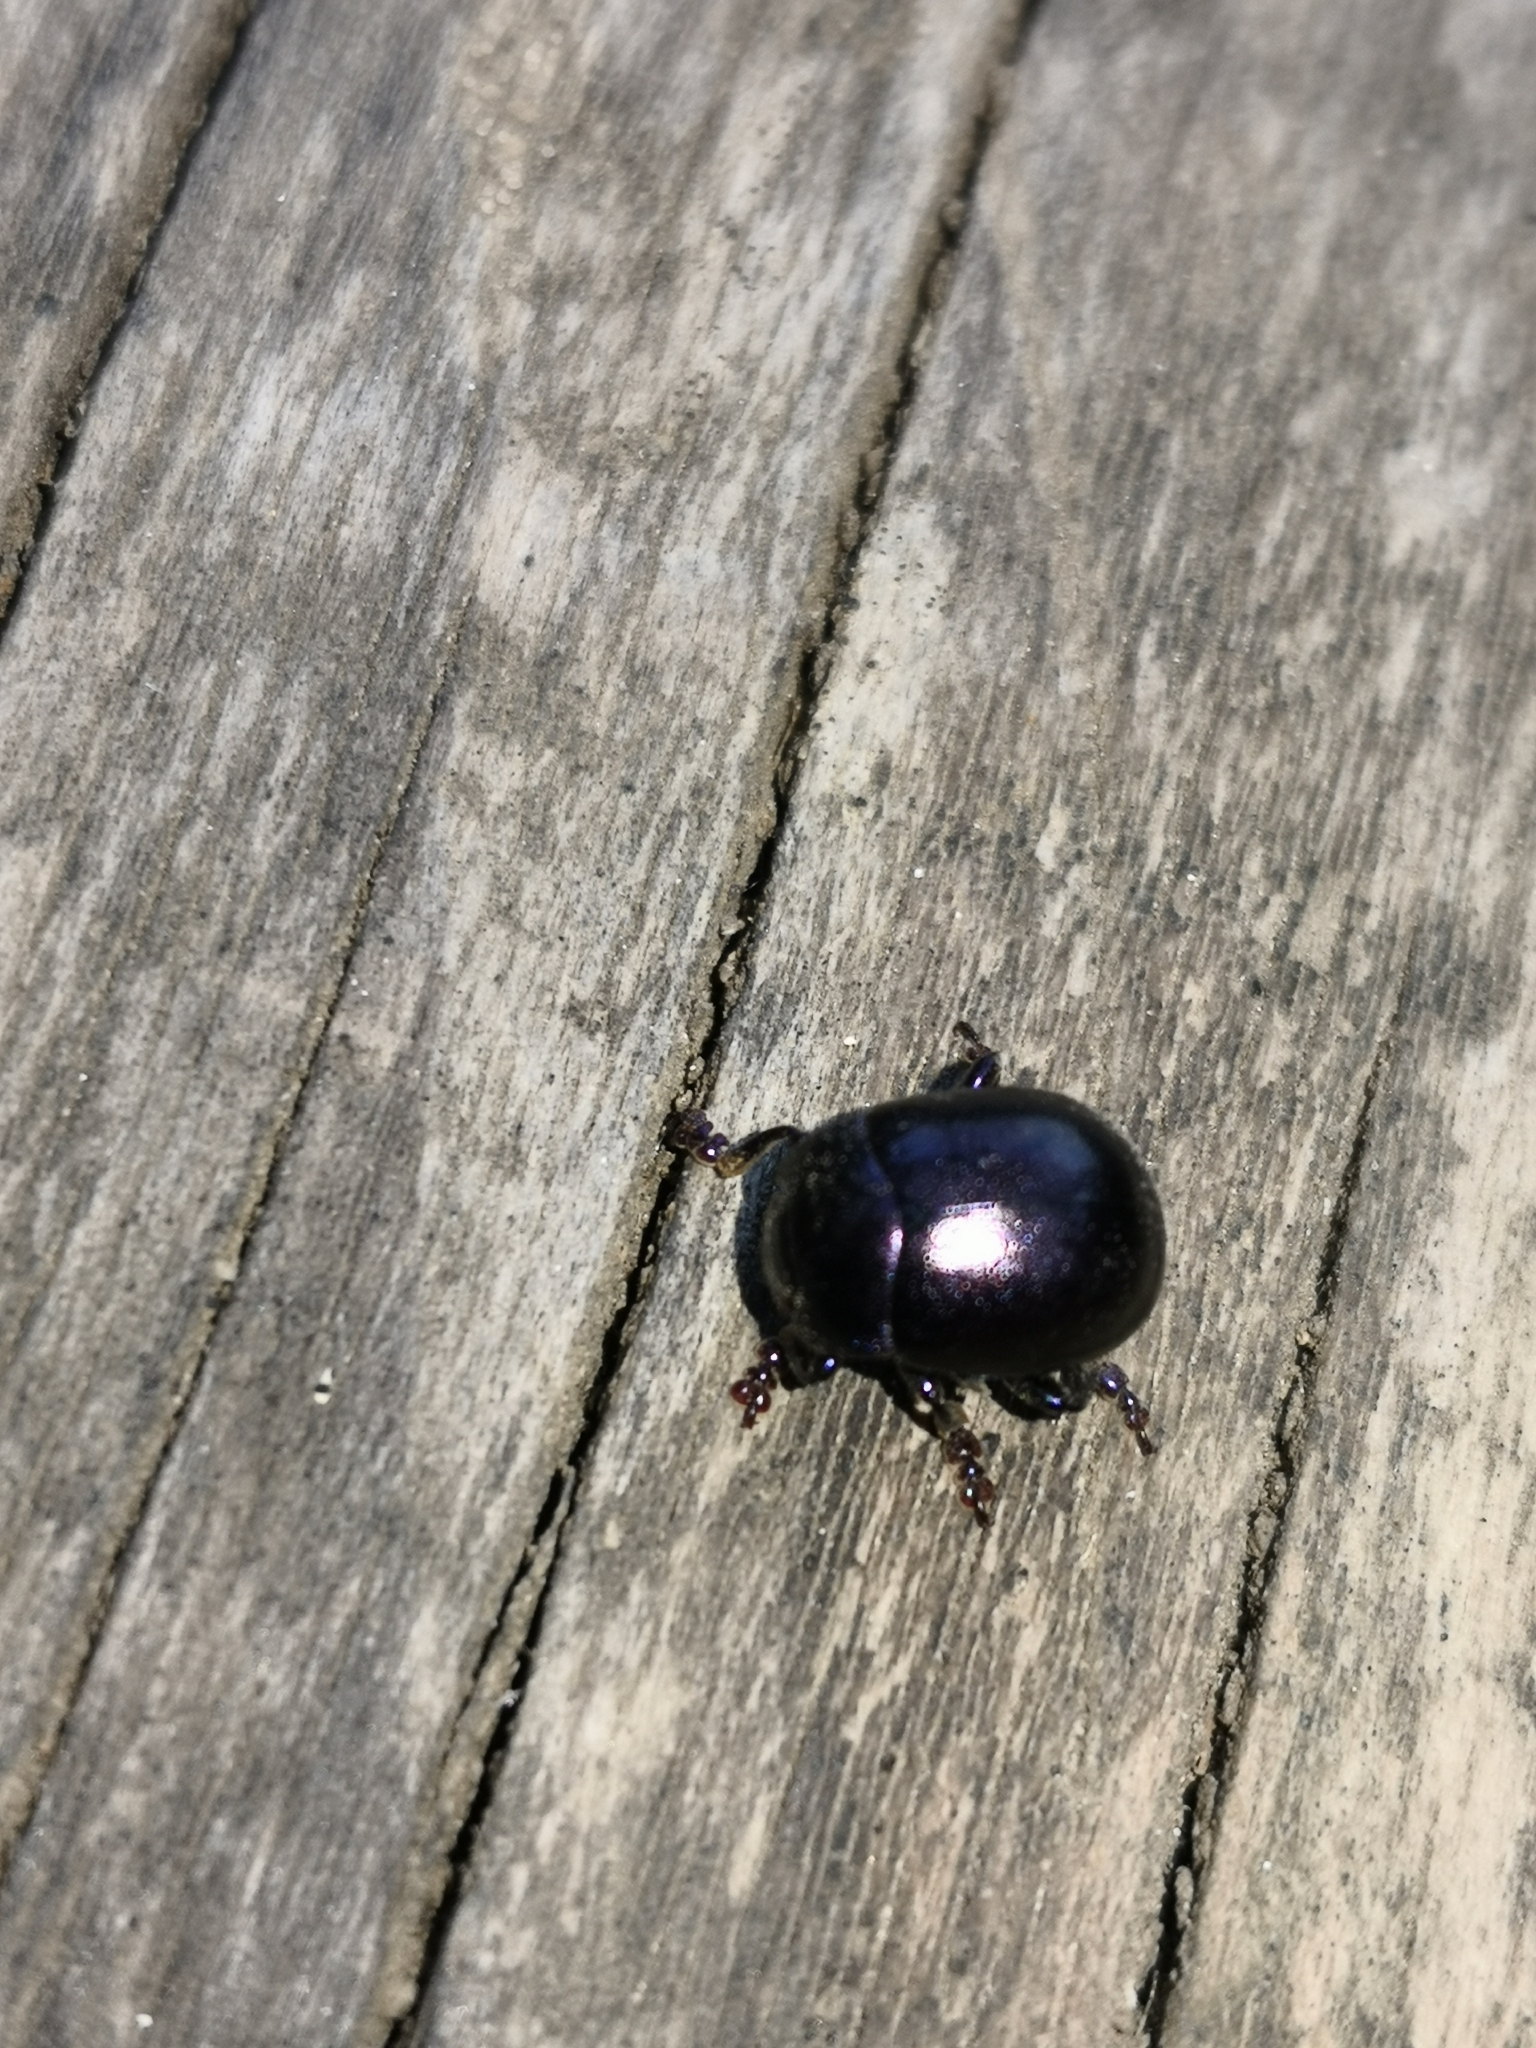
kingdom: Animalia
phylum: Arthropoda
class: Insecta
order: Coleoptera
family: Chrysomelidae
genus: Chrysolina
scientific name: Chrysolina sturmi
